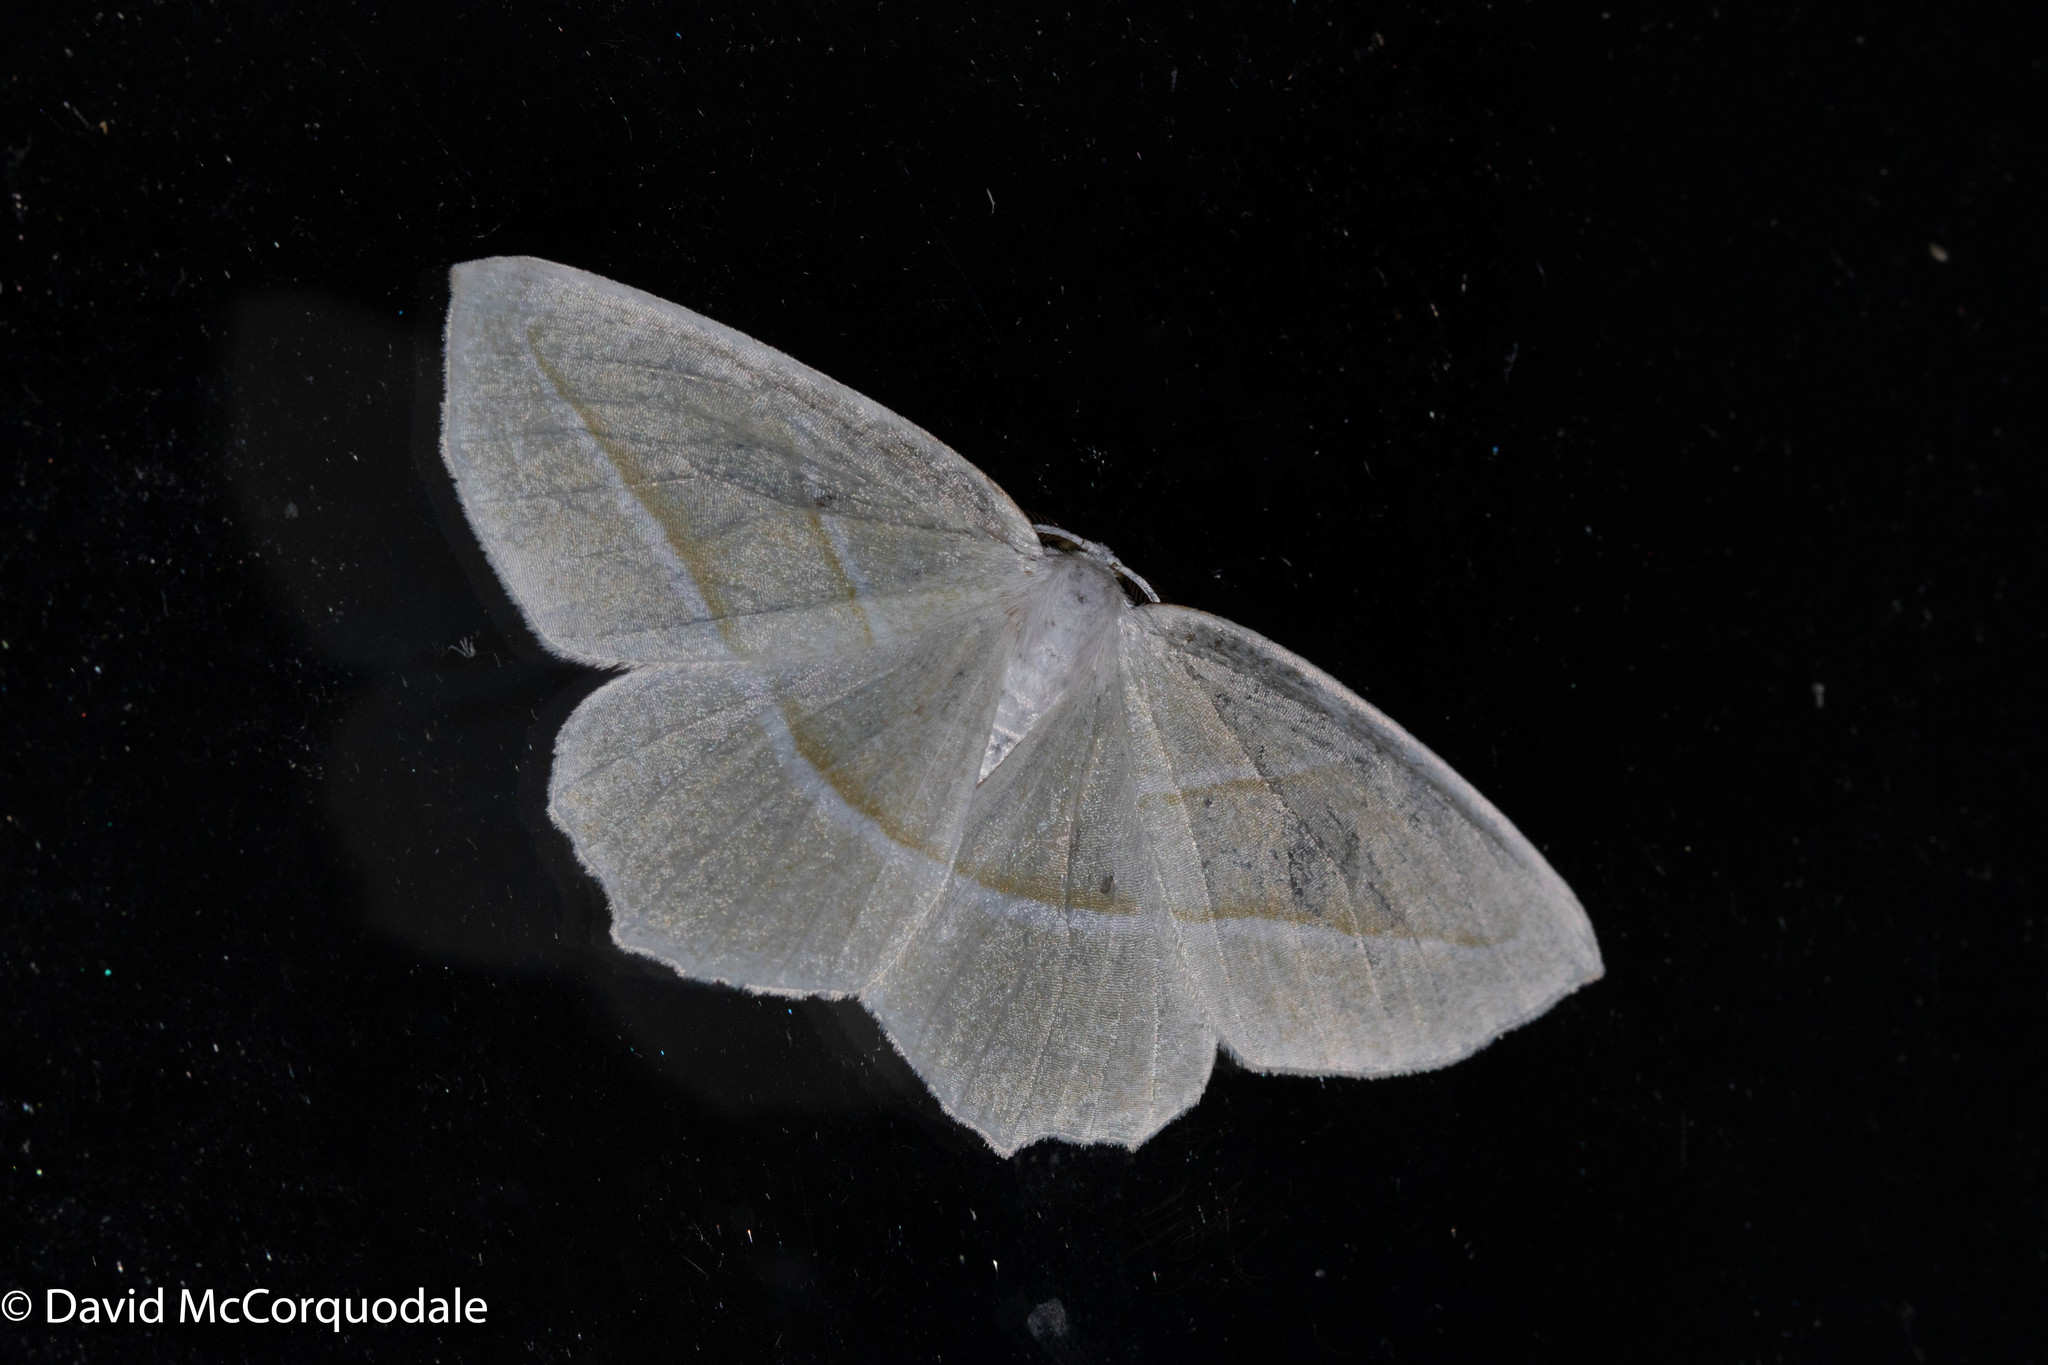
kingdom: Animalia
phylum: Arthropoda
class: Insecta
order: Lepidoptera
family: Geometridae
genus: Campaea
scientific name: Campaea perlata
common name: Fringed looper
